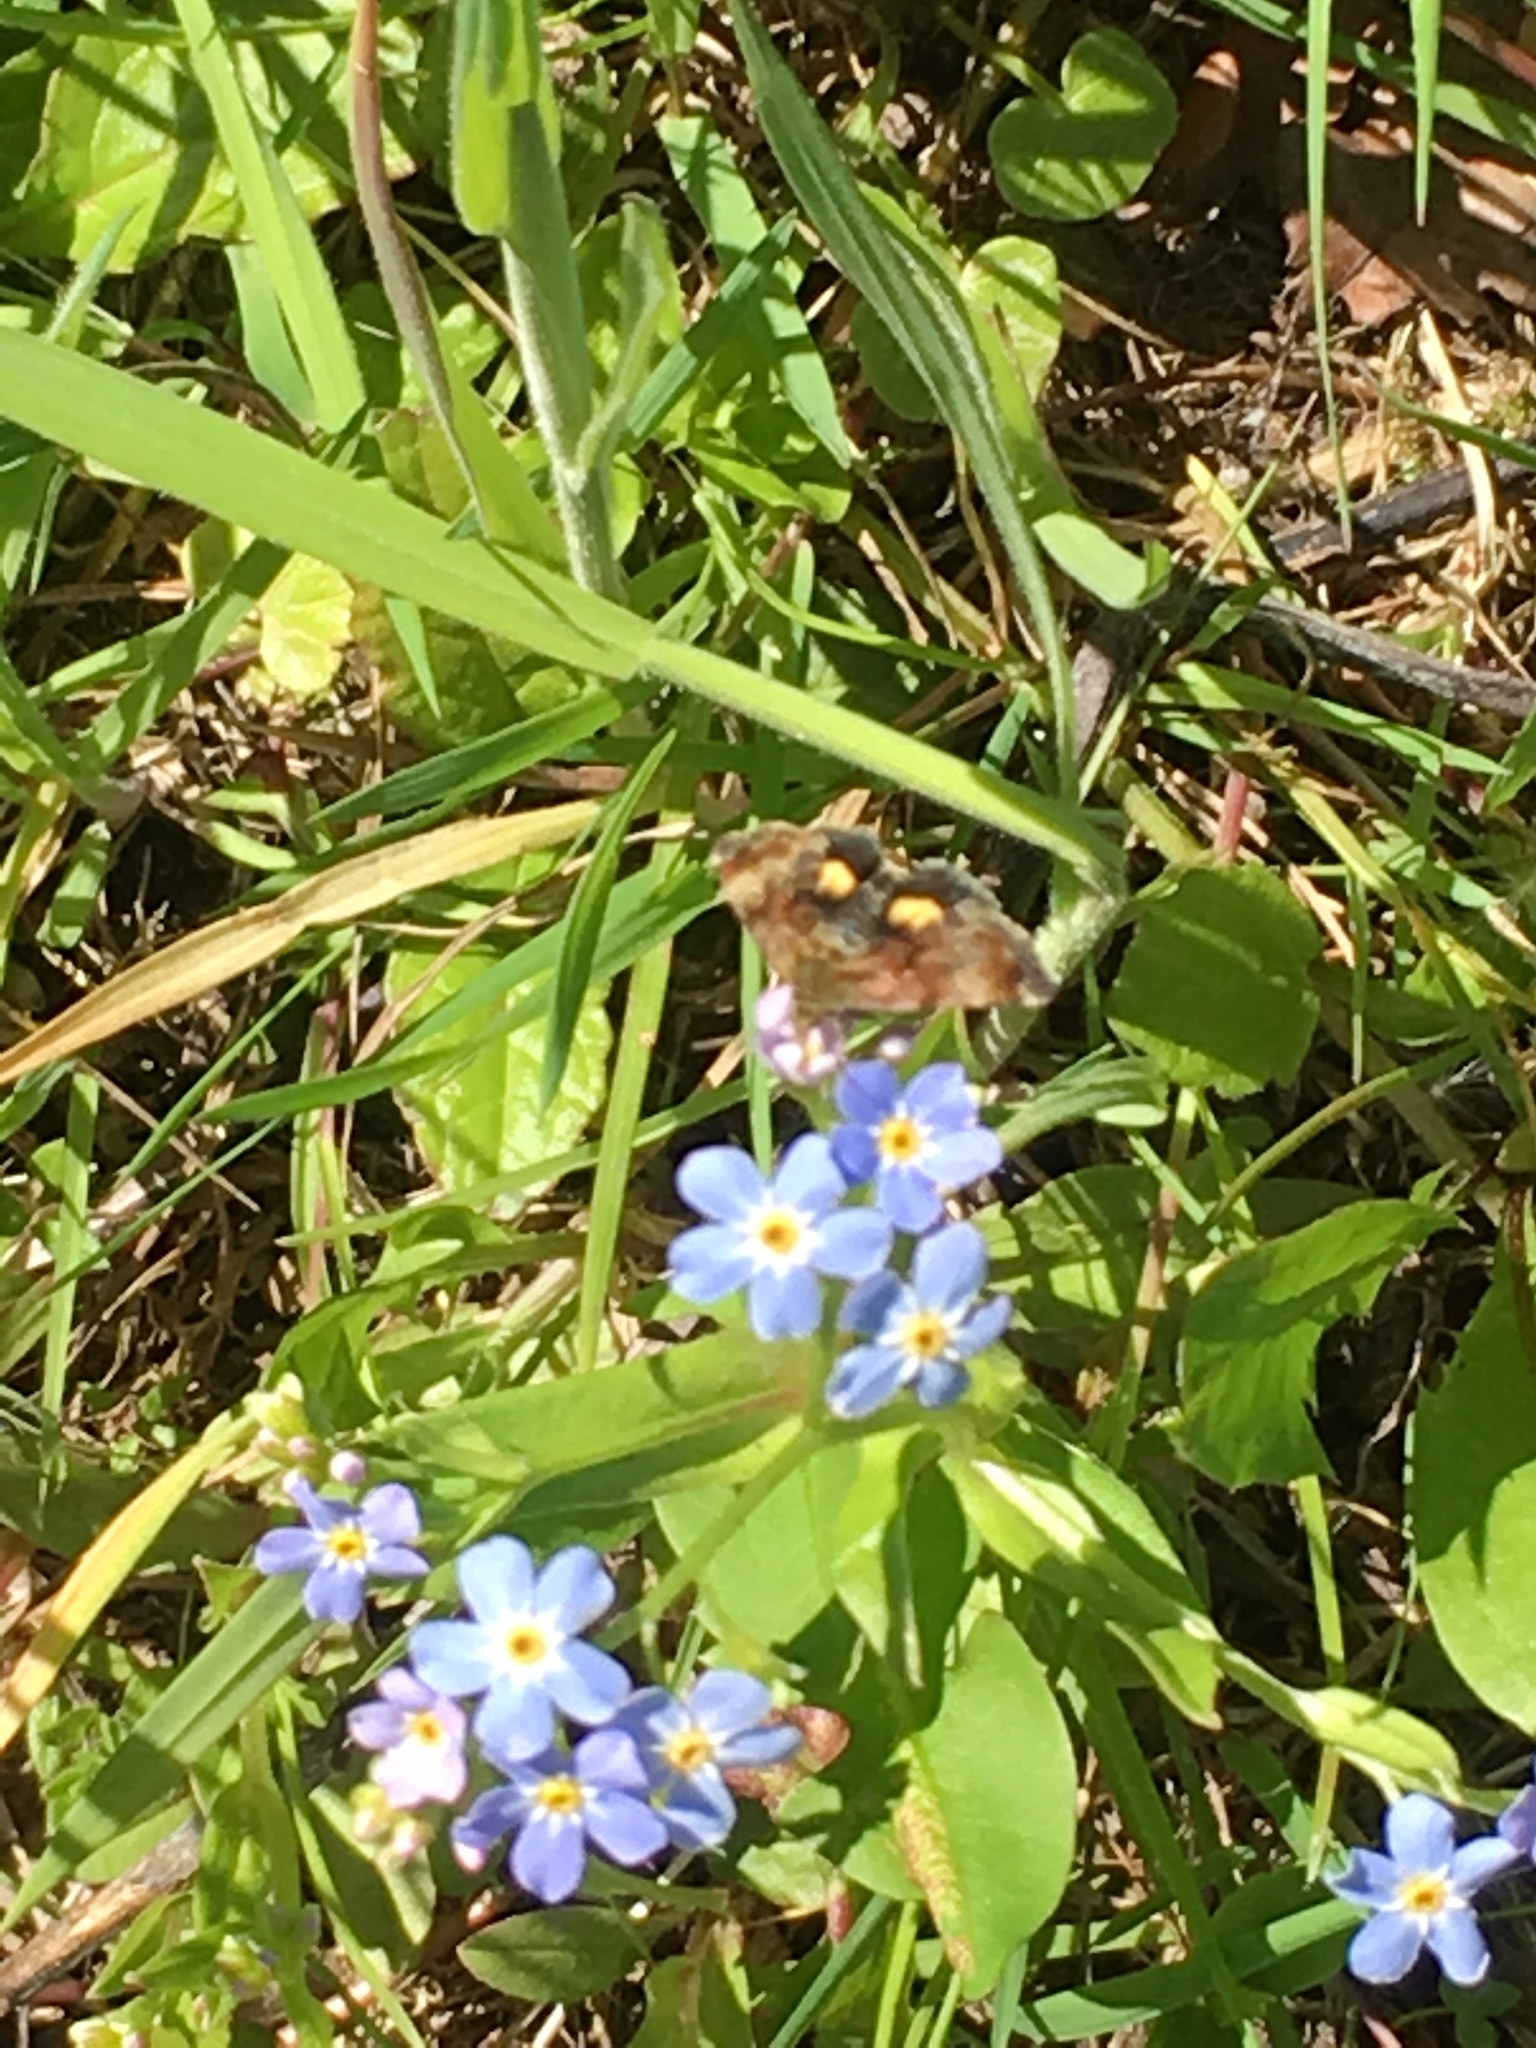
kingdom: Animalia
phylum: Arthropoda
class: Insecta
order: Lepidoptera
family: Noctuidae
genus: Panemeria
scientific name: Panemeria tenebrata
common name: Small yellow underwing
